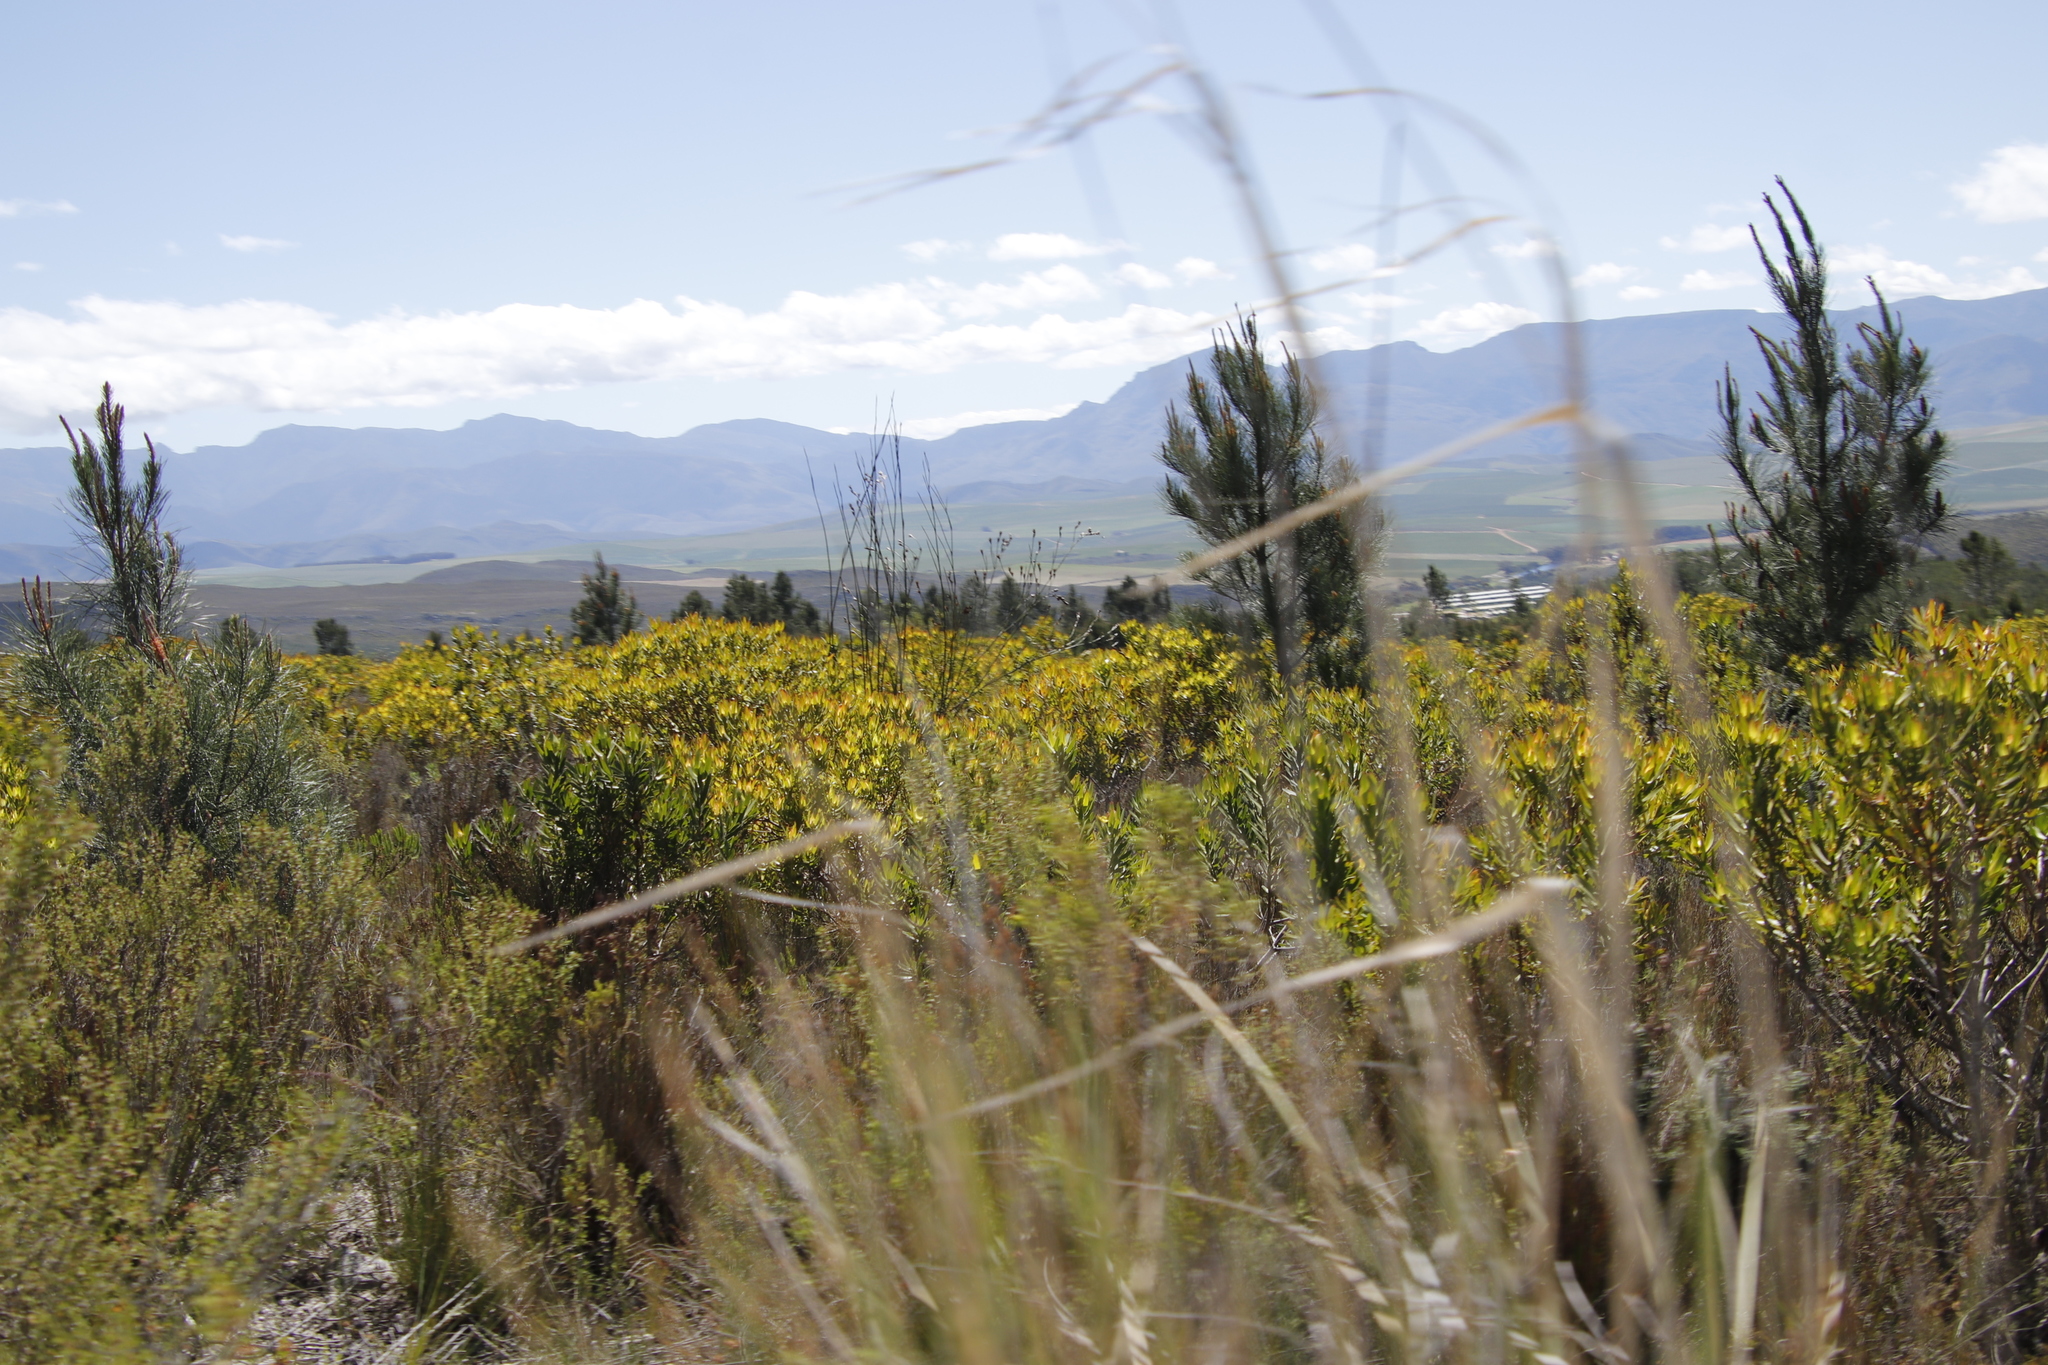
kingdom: Plantae
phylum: Tracheophyta
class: Magnoliopsida
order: Proteales
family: Proteaceae
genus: Leucadendron
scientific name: Leucadendron laureolum
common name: Golden sunshinebush
